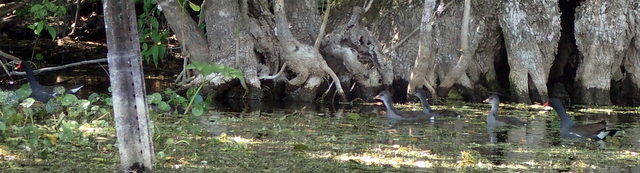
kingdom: Animalia
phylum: Chordata
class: Aves
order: Gruiformes
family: Rallidae
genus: Gallinula
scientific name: Gallinula chloropus
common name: Common moorhen
